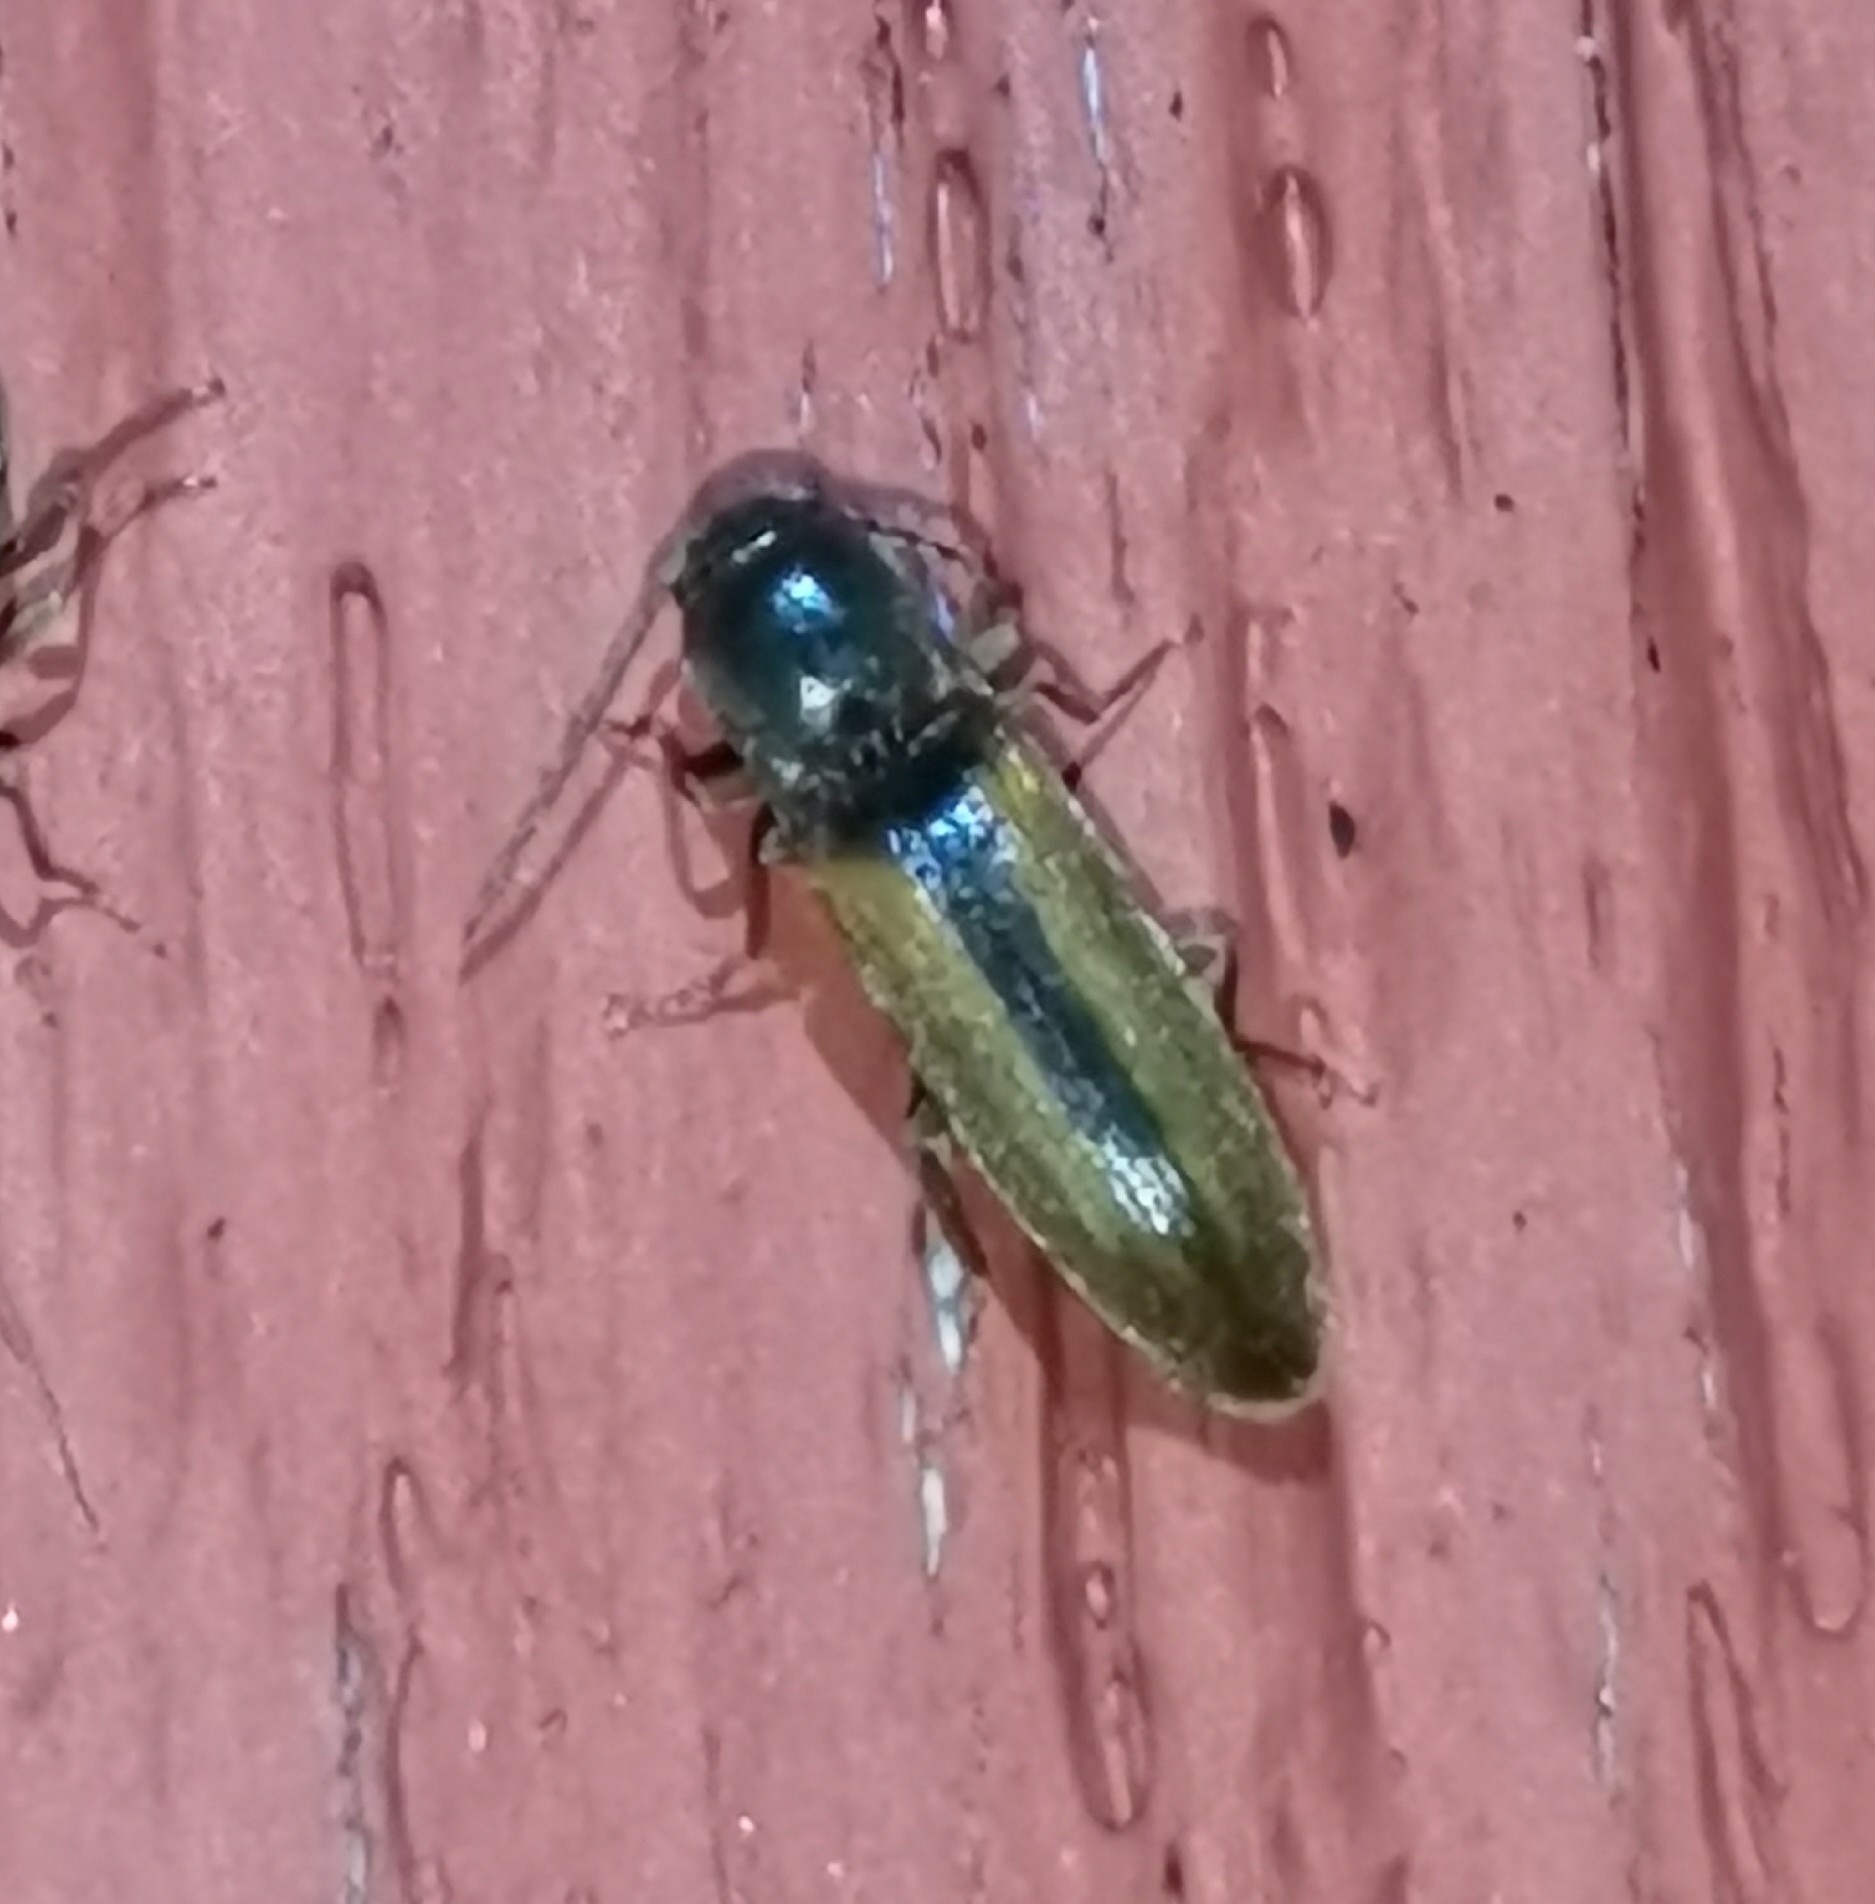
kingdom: Animalia
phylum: Arthropoda
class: Insecta
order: Coleoptera
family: Elateridae
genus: Dalopius
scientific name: Dalopius marginatus
